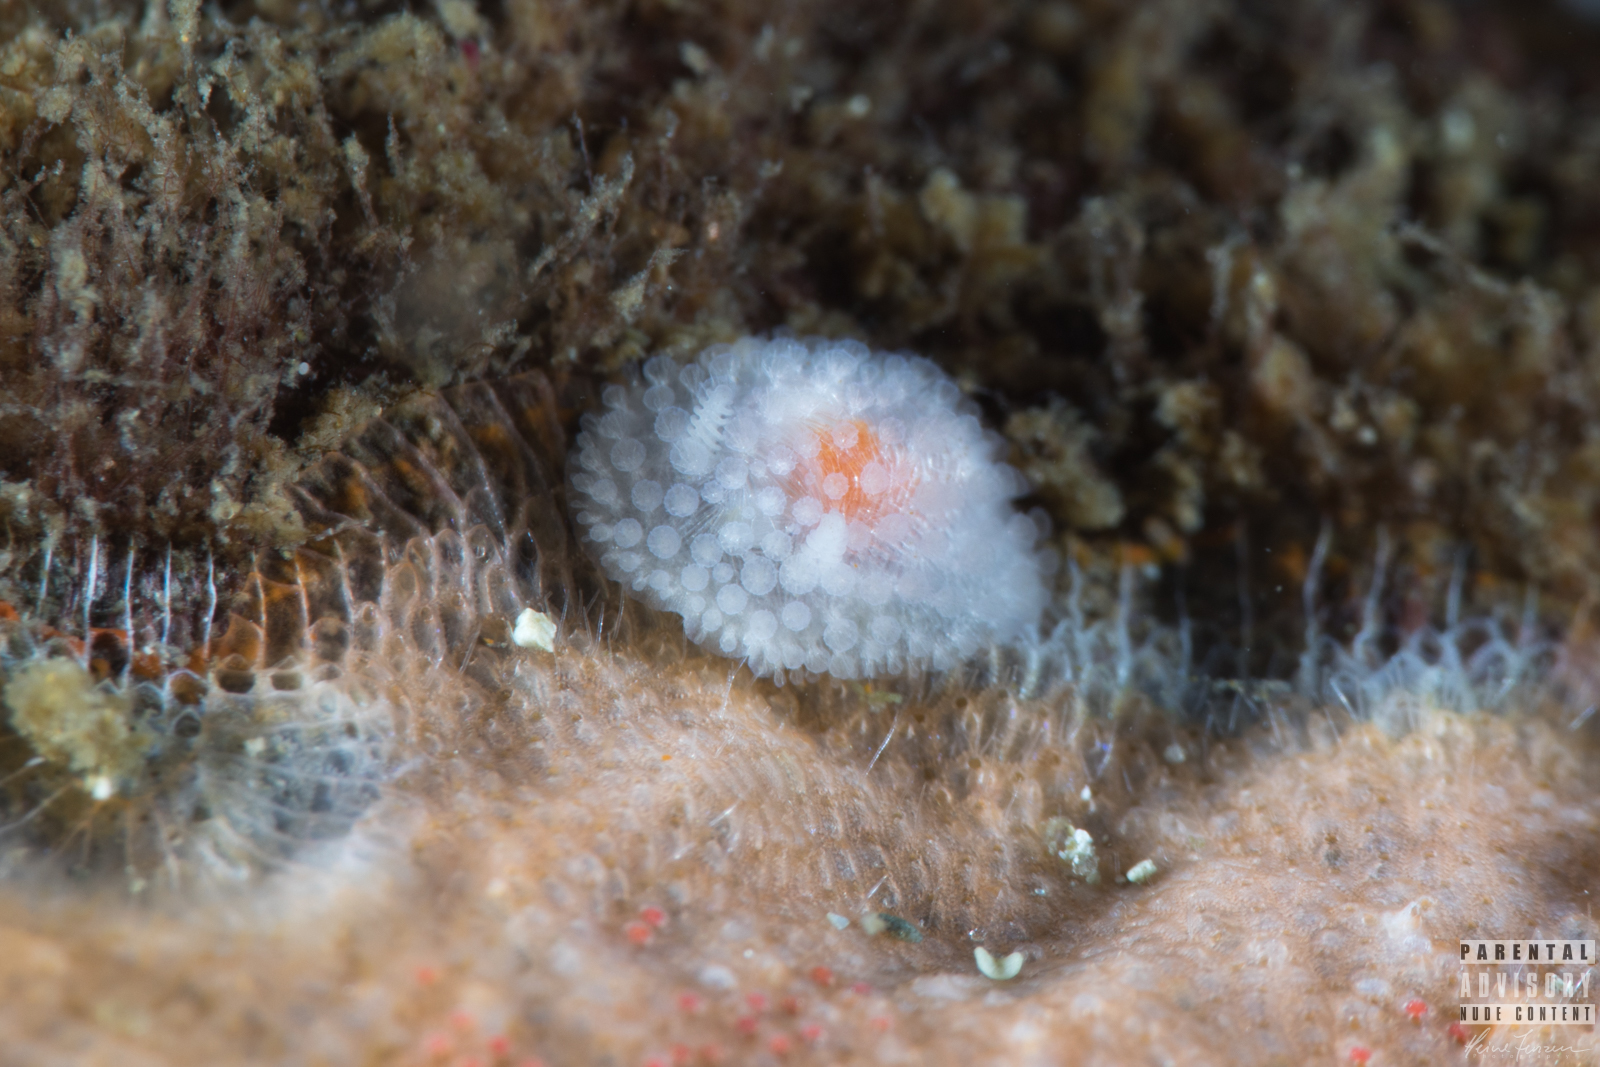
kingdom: Animalia
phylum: Mollusca
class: Gastropoda
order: Nudibranchia
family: Onchidorididae
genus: Onchidoris
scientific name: Onchidoris muricata
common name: Rough doris
